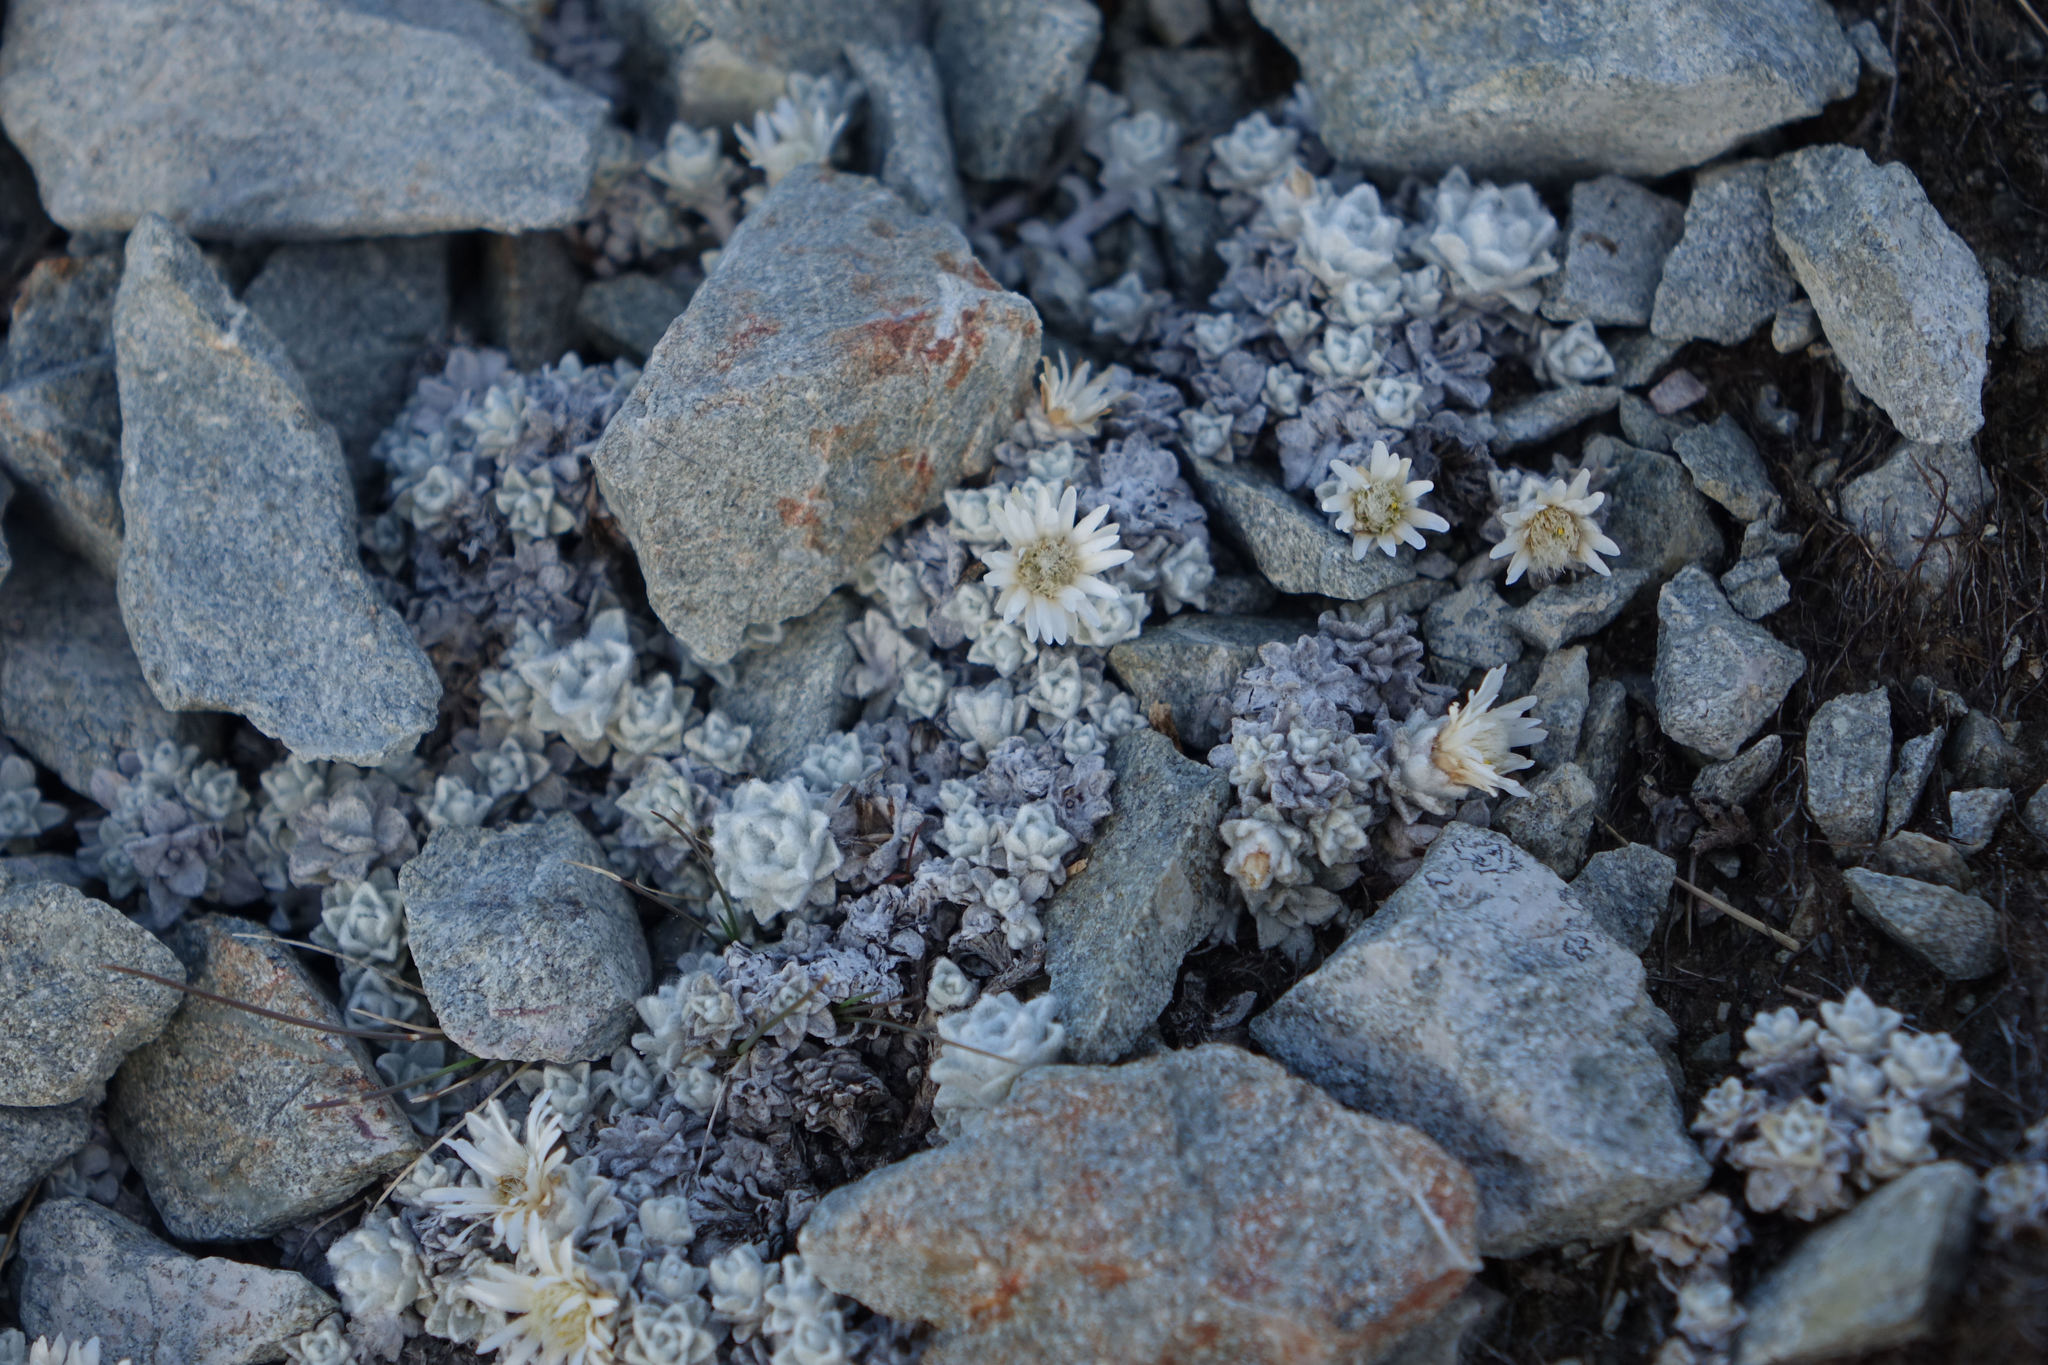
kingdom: Plantae
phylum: Tracheophyta
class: Magnoliopsida
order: Asterales
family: Asteraceae
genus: Raoulia
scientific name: Raoulia youngii
